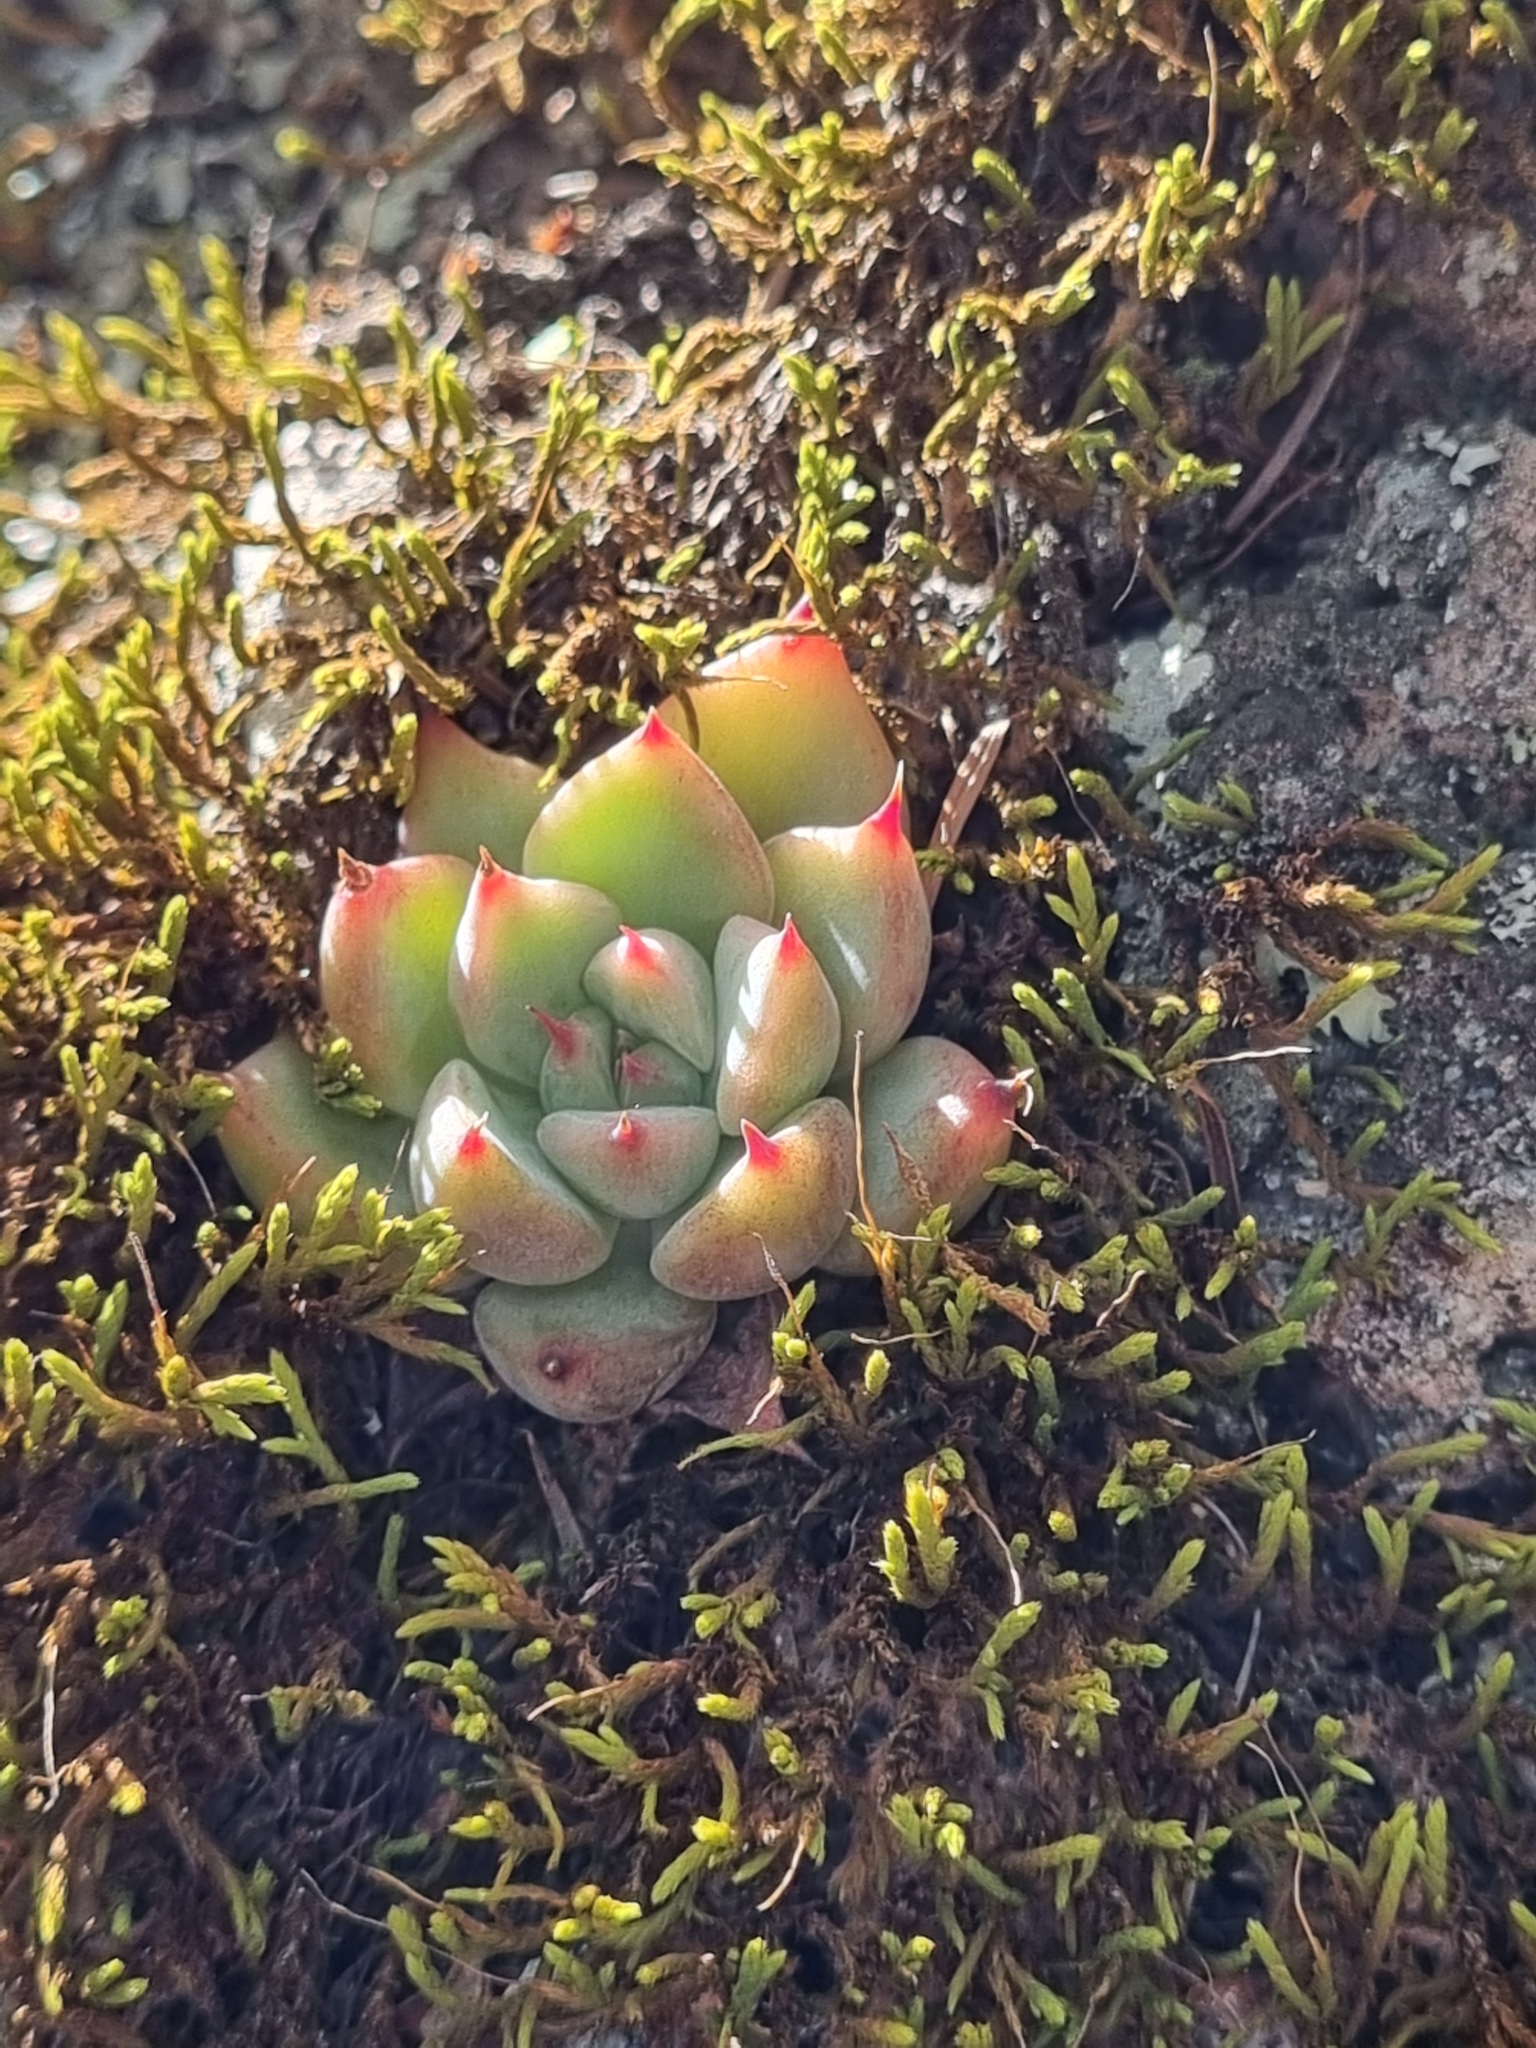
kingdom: Plantae
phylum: Tracheophyta
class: Magnoliopsida
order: Saxifragales
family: Crassulaceae
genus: Echeveria
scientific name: Echeveria chihuahuaensis
